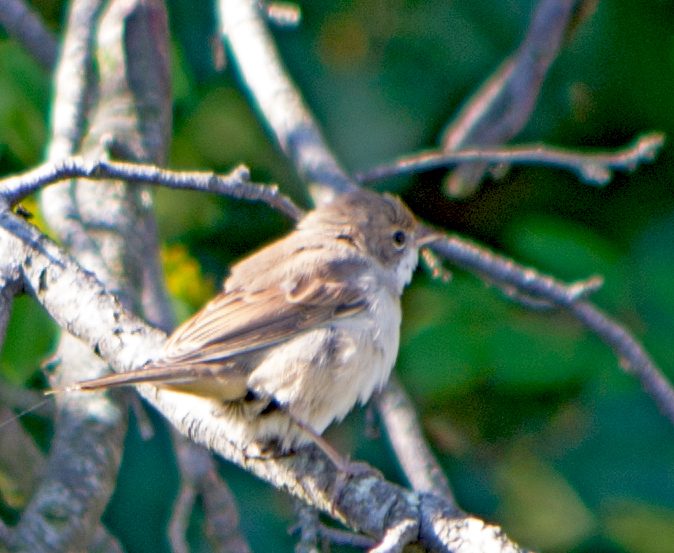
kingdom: Animalia
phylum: Chordata
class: Aves
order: Passeriformes
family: Sylviidae
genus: Sylvia
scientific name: Sylvia communis
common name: Common whitethroat
